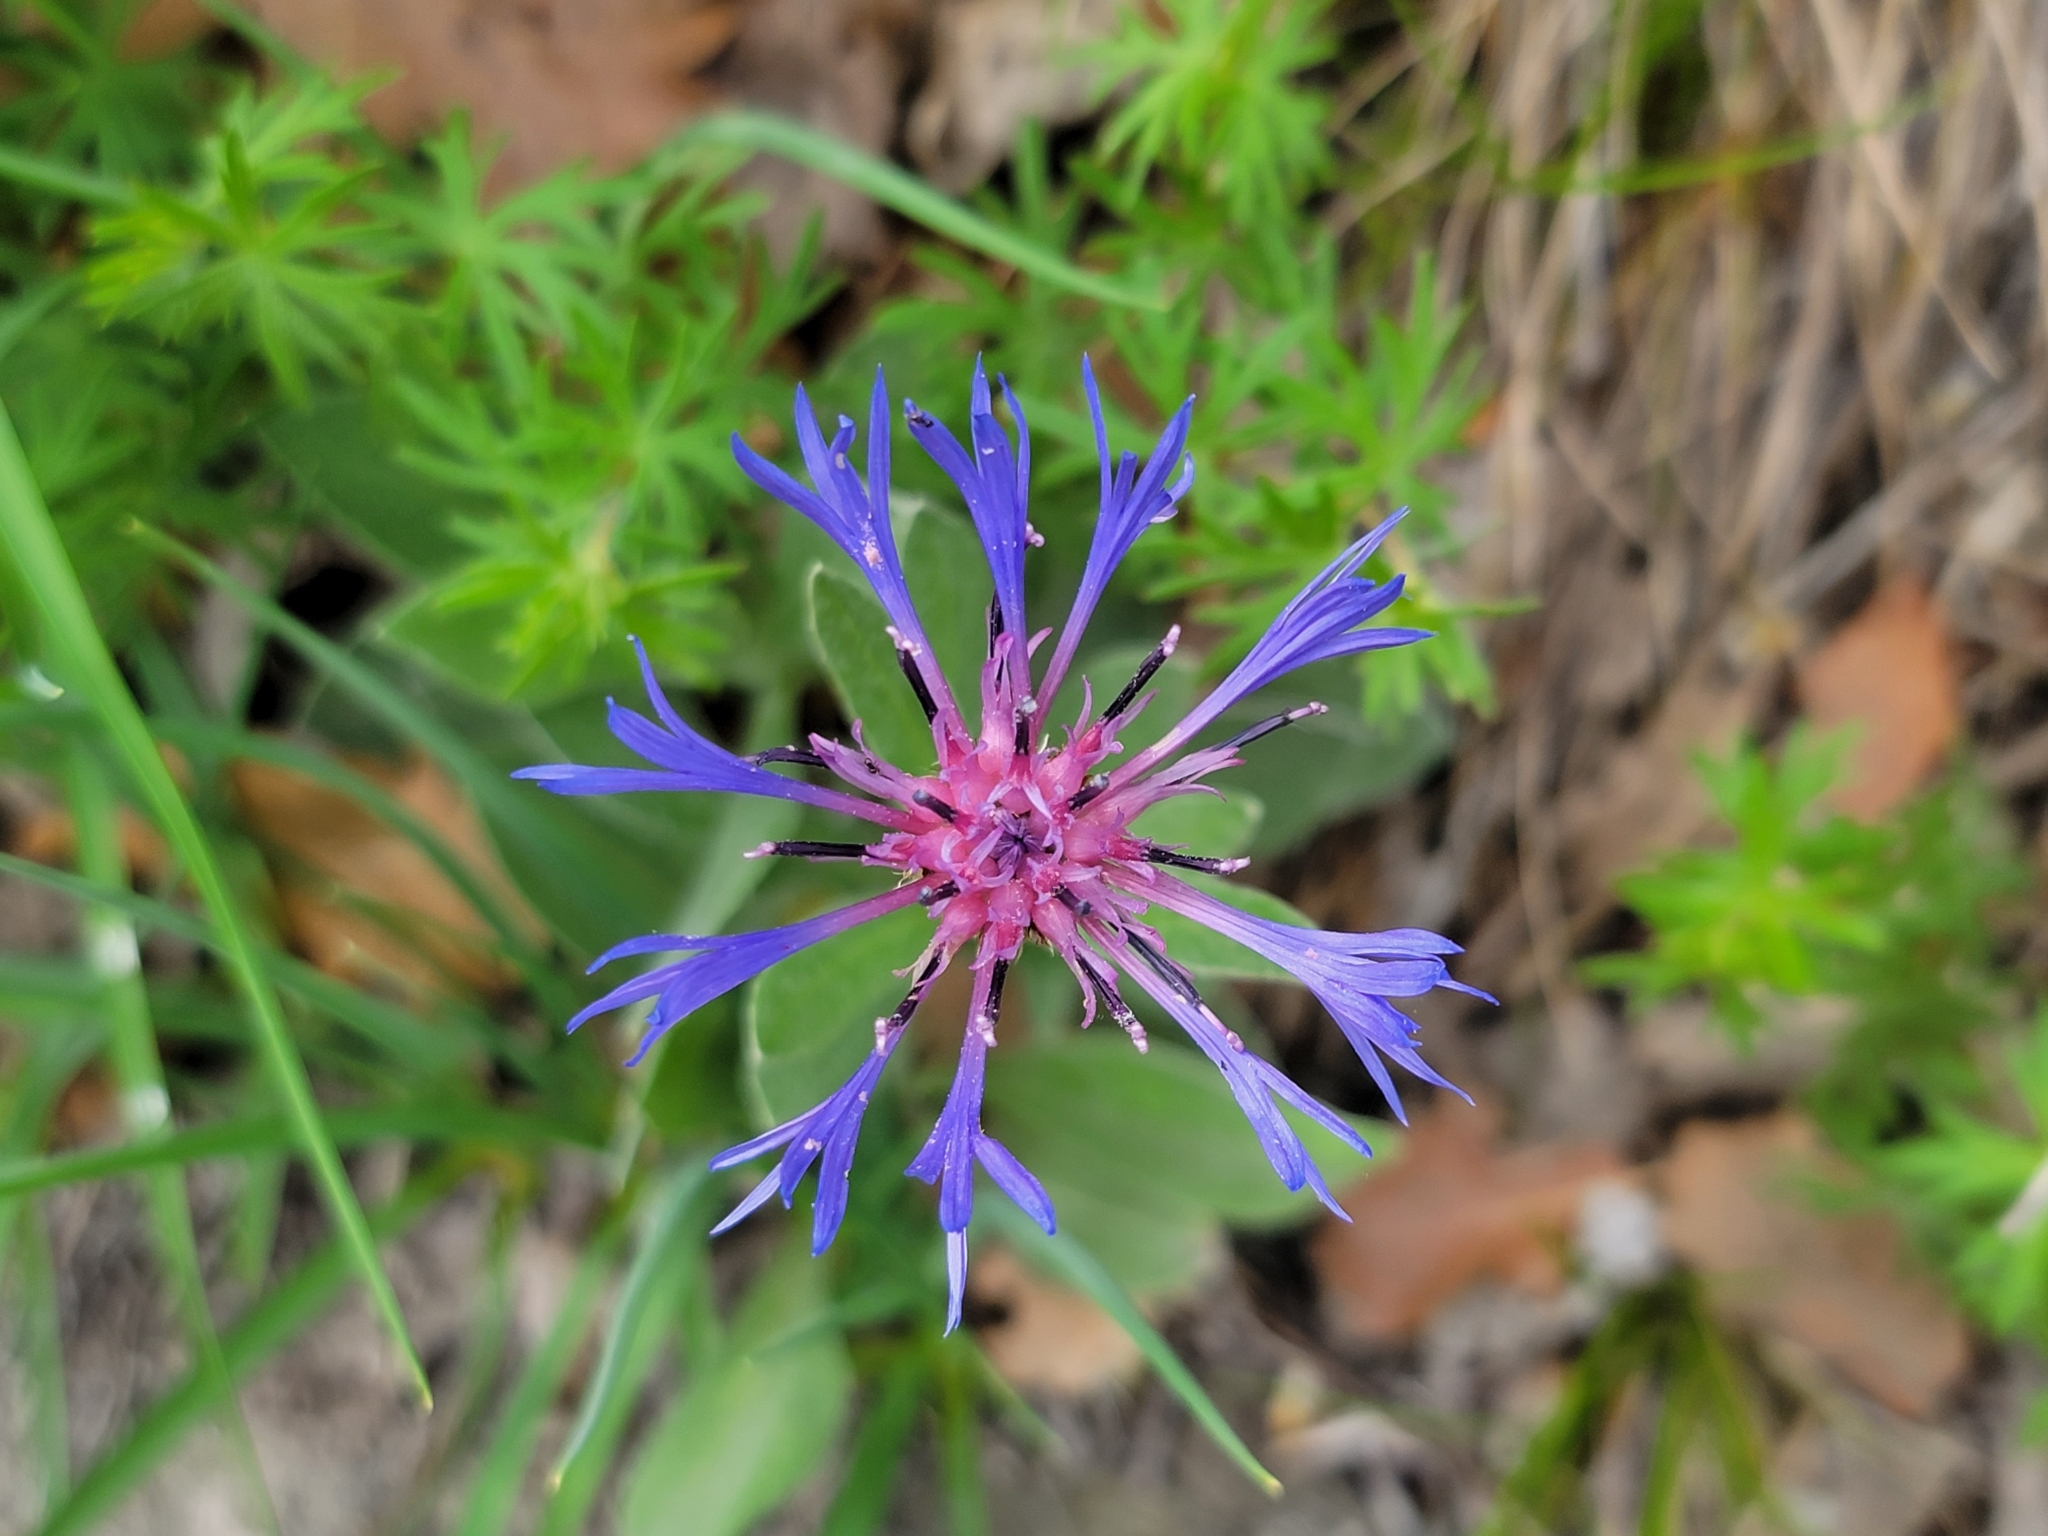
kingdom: Plantae
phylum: Tracheophyta
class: Magnoliopsida
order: Asterales
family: Asteraceae
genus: Centaurea
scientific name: Centaurea triumfettii
